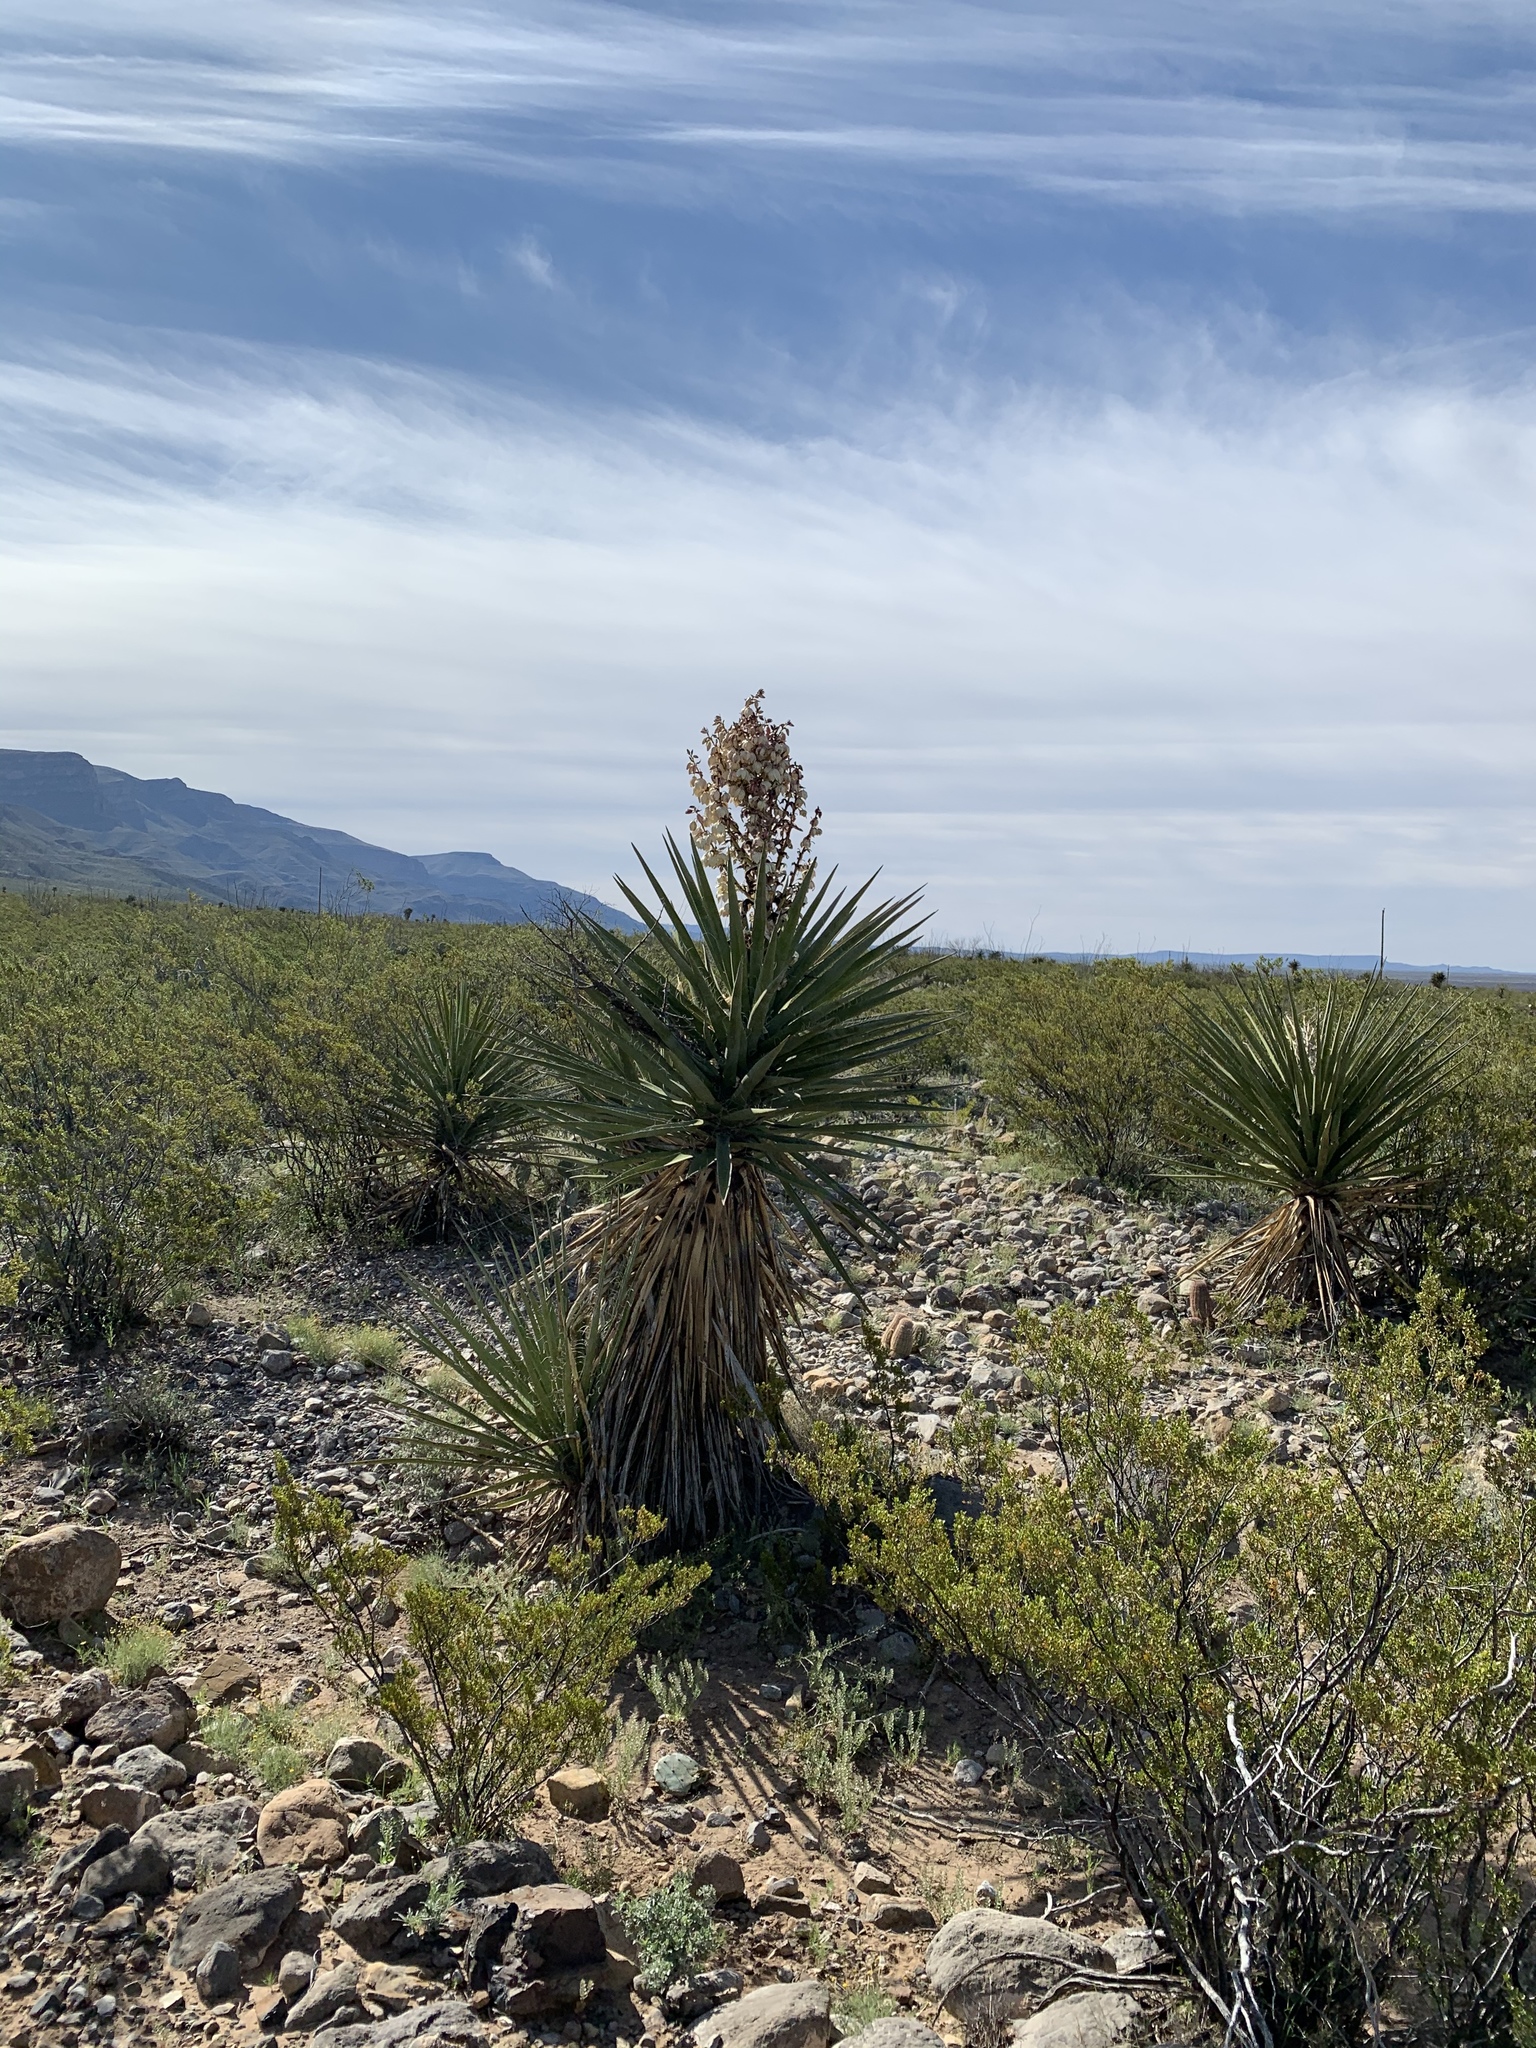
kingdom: Plantae
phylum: Tracheophyta
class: Liliopsida
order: Asparagales
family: Asparagaceae
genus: Yucca
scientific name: Yucca treculiana
